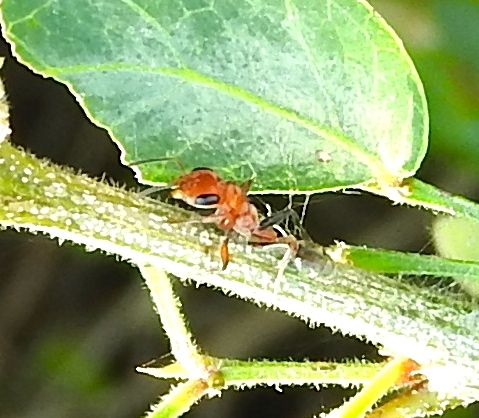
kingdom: Animalia
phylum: Arthropoda
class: Insecta
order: Hymenoptera
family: Formicidae
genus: Pseudomyrmex
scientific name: Pseudomyrmex gracilis
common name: Graceful twig ant
